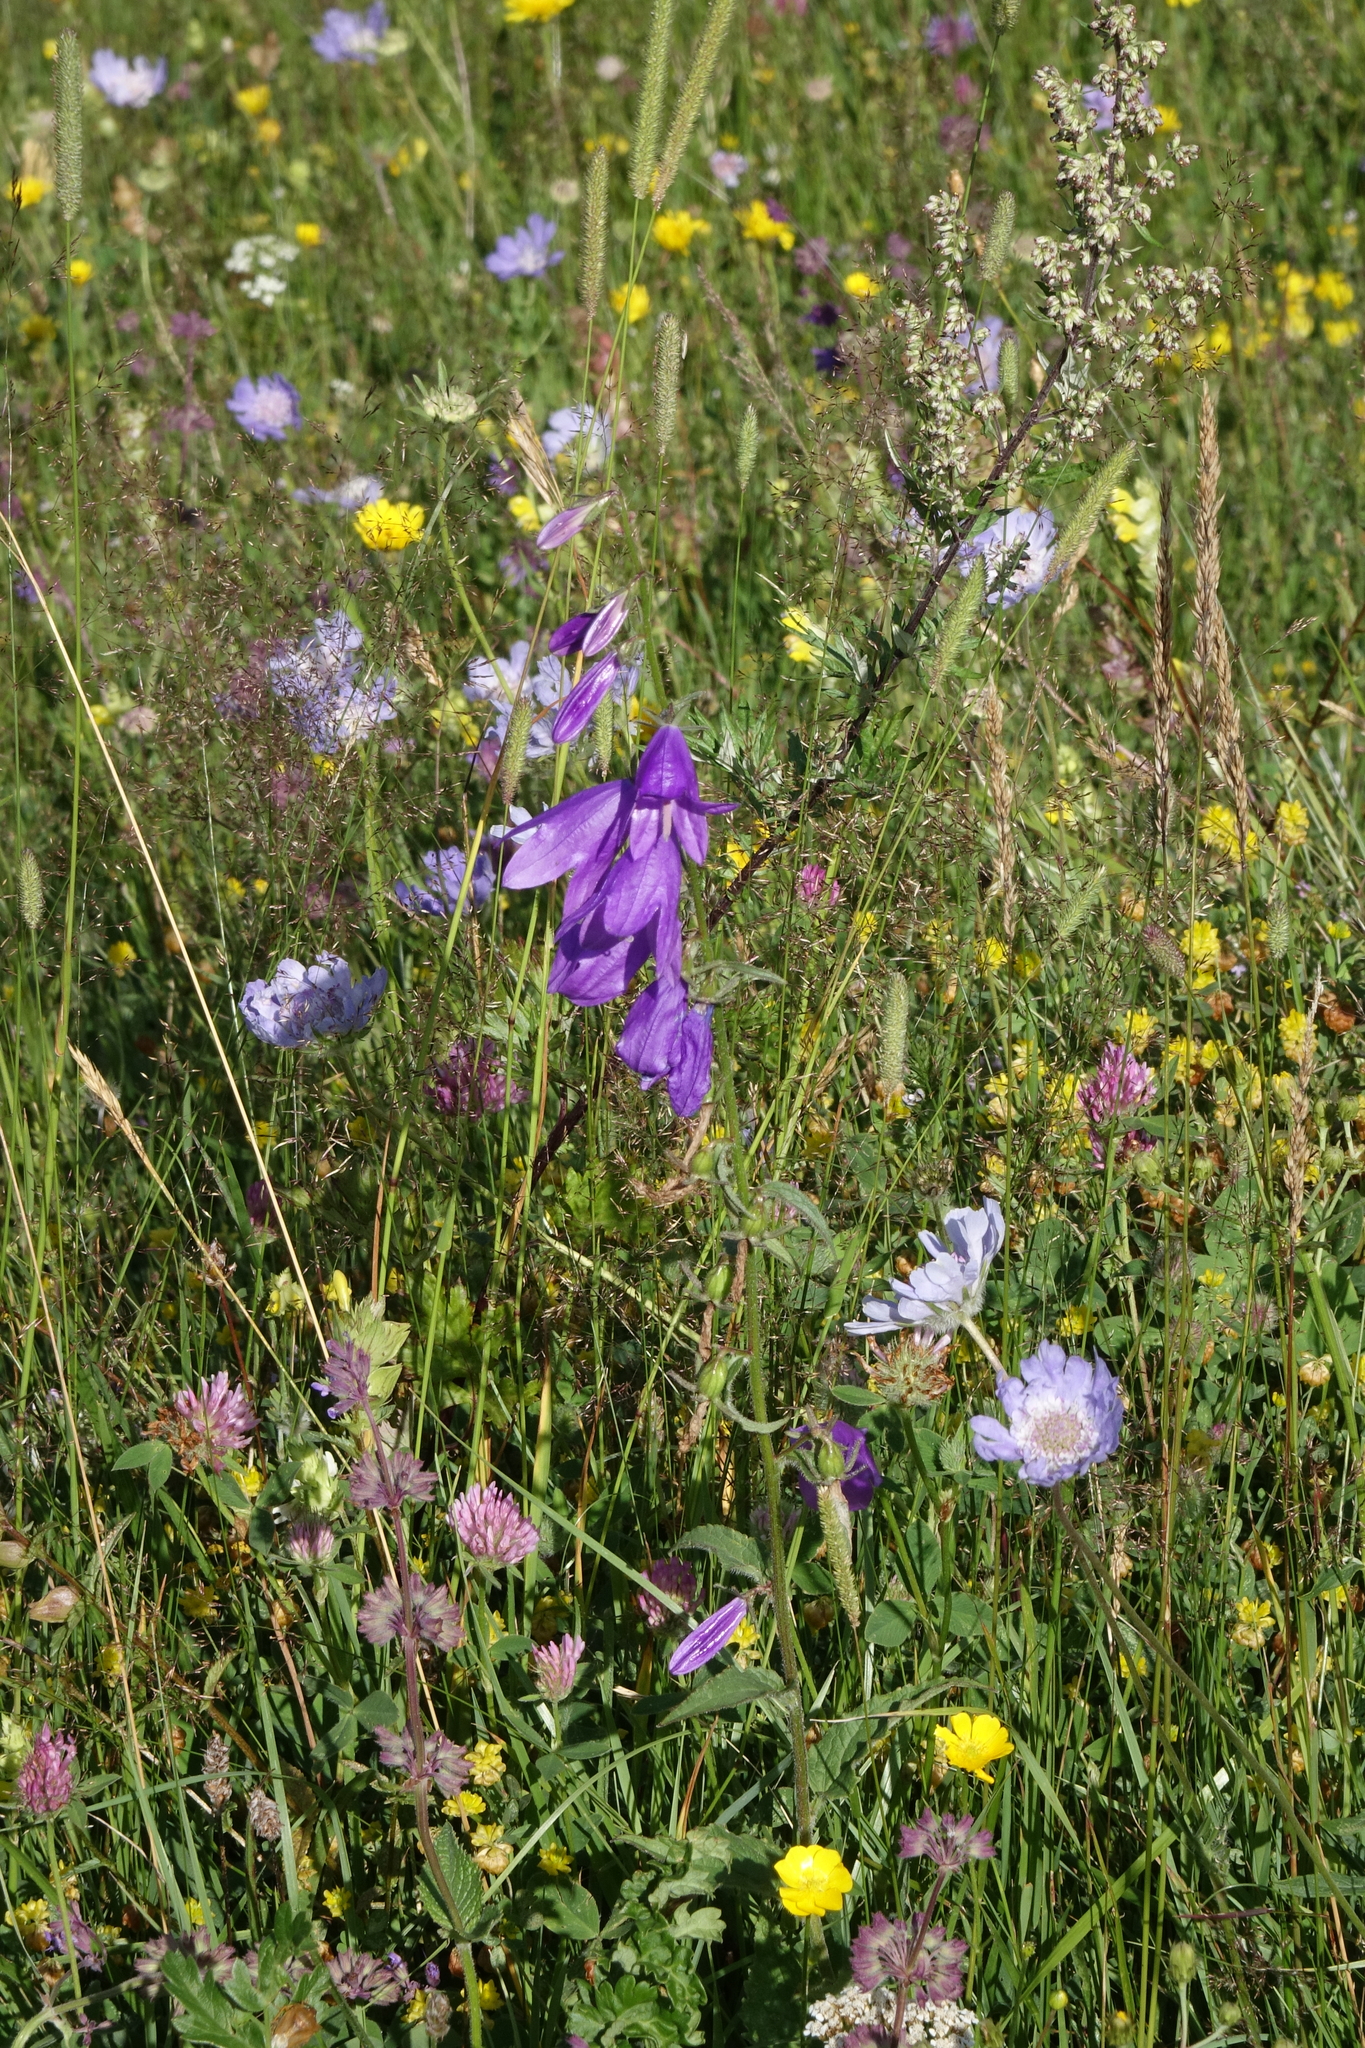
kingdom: Plantae
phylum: Tracheophyta
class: Magnoliopsida
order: Asterales
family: Campanulaceae
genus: Campanula
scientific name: Campanula rapunculoides
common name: Creeping bellflower
